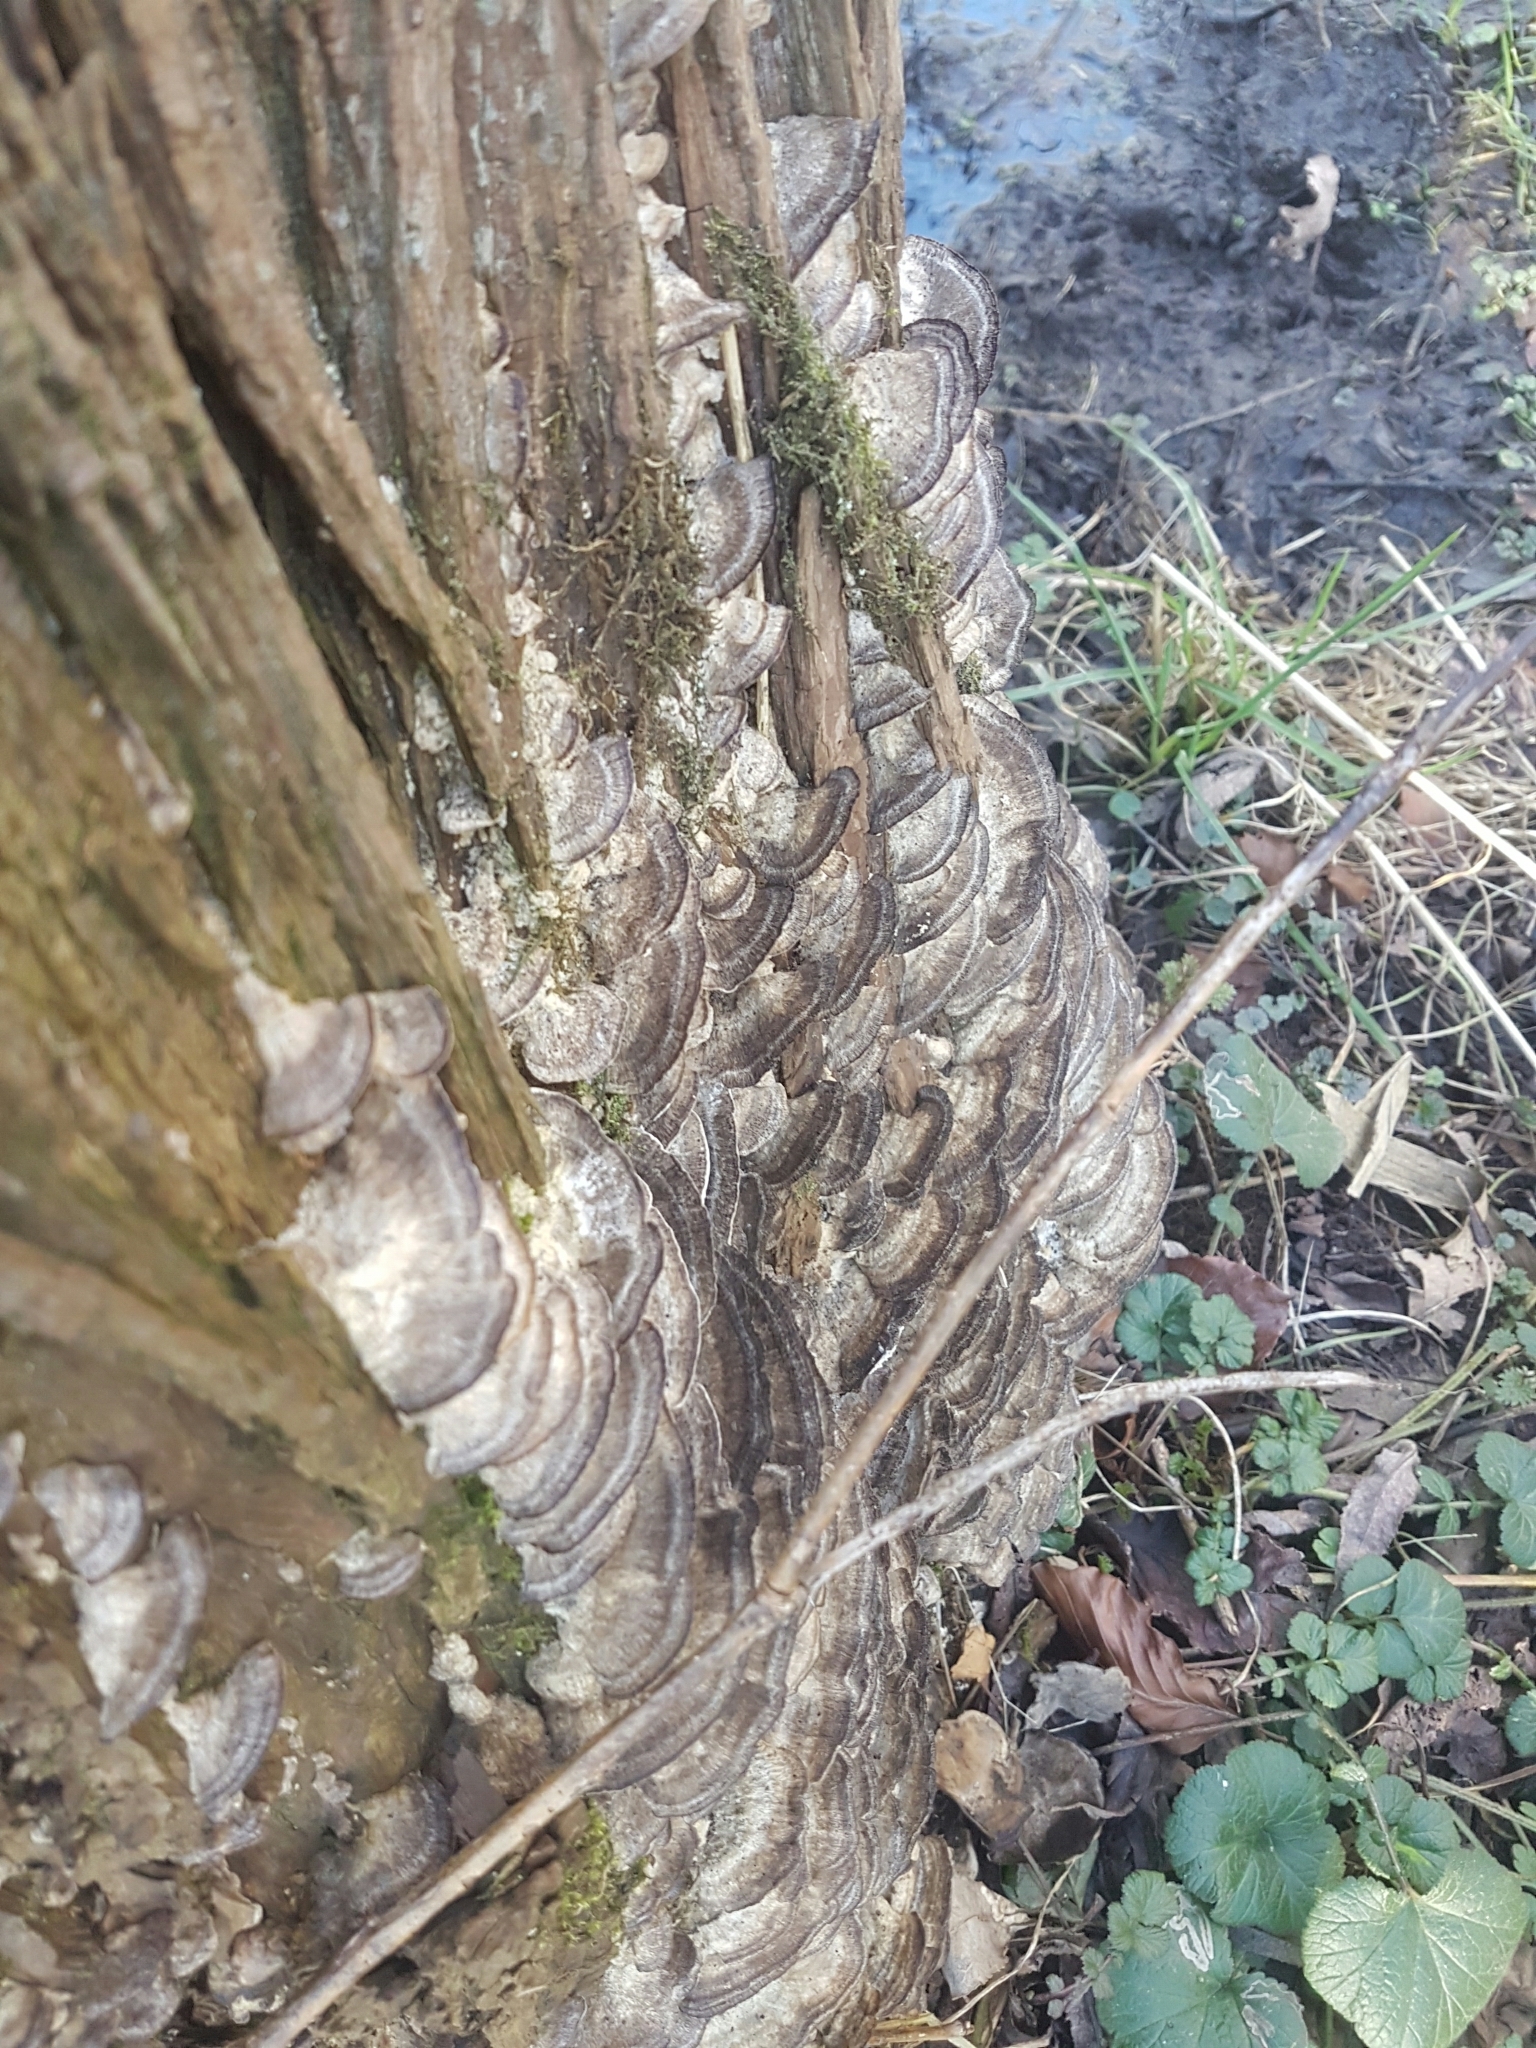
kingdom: Fungi
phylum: Basidiomycota
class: Agaricomycetes
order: Polyporales
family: Phanerochaetaceae
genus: Bjerkandera
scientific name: Bjerkandera adusta
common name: Smoky bracket
